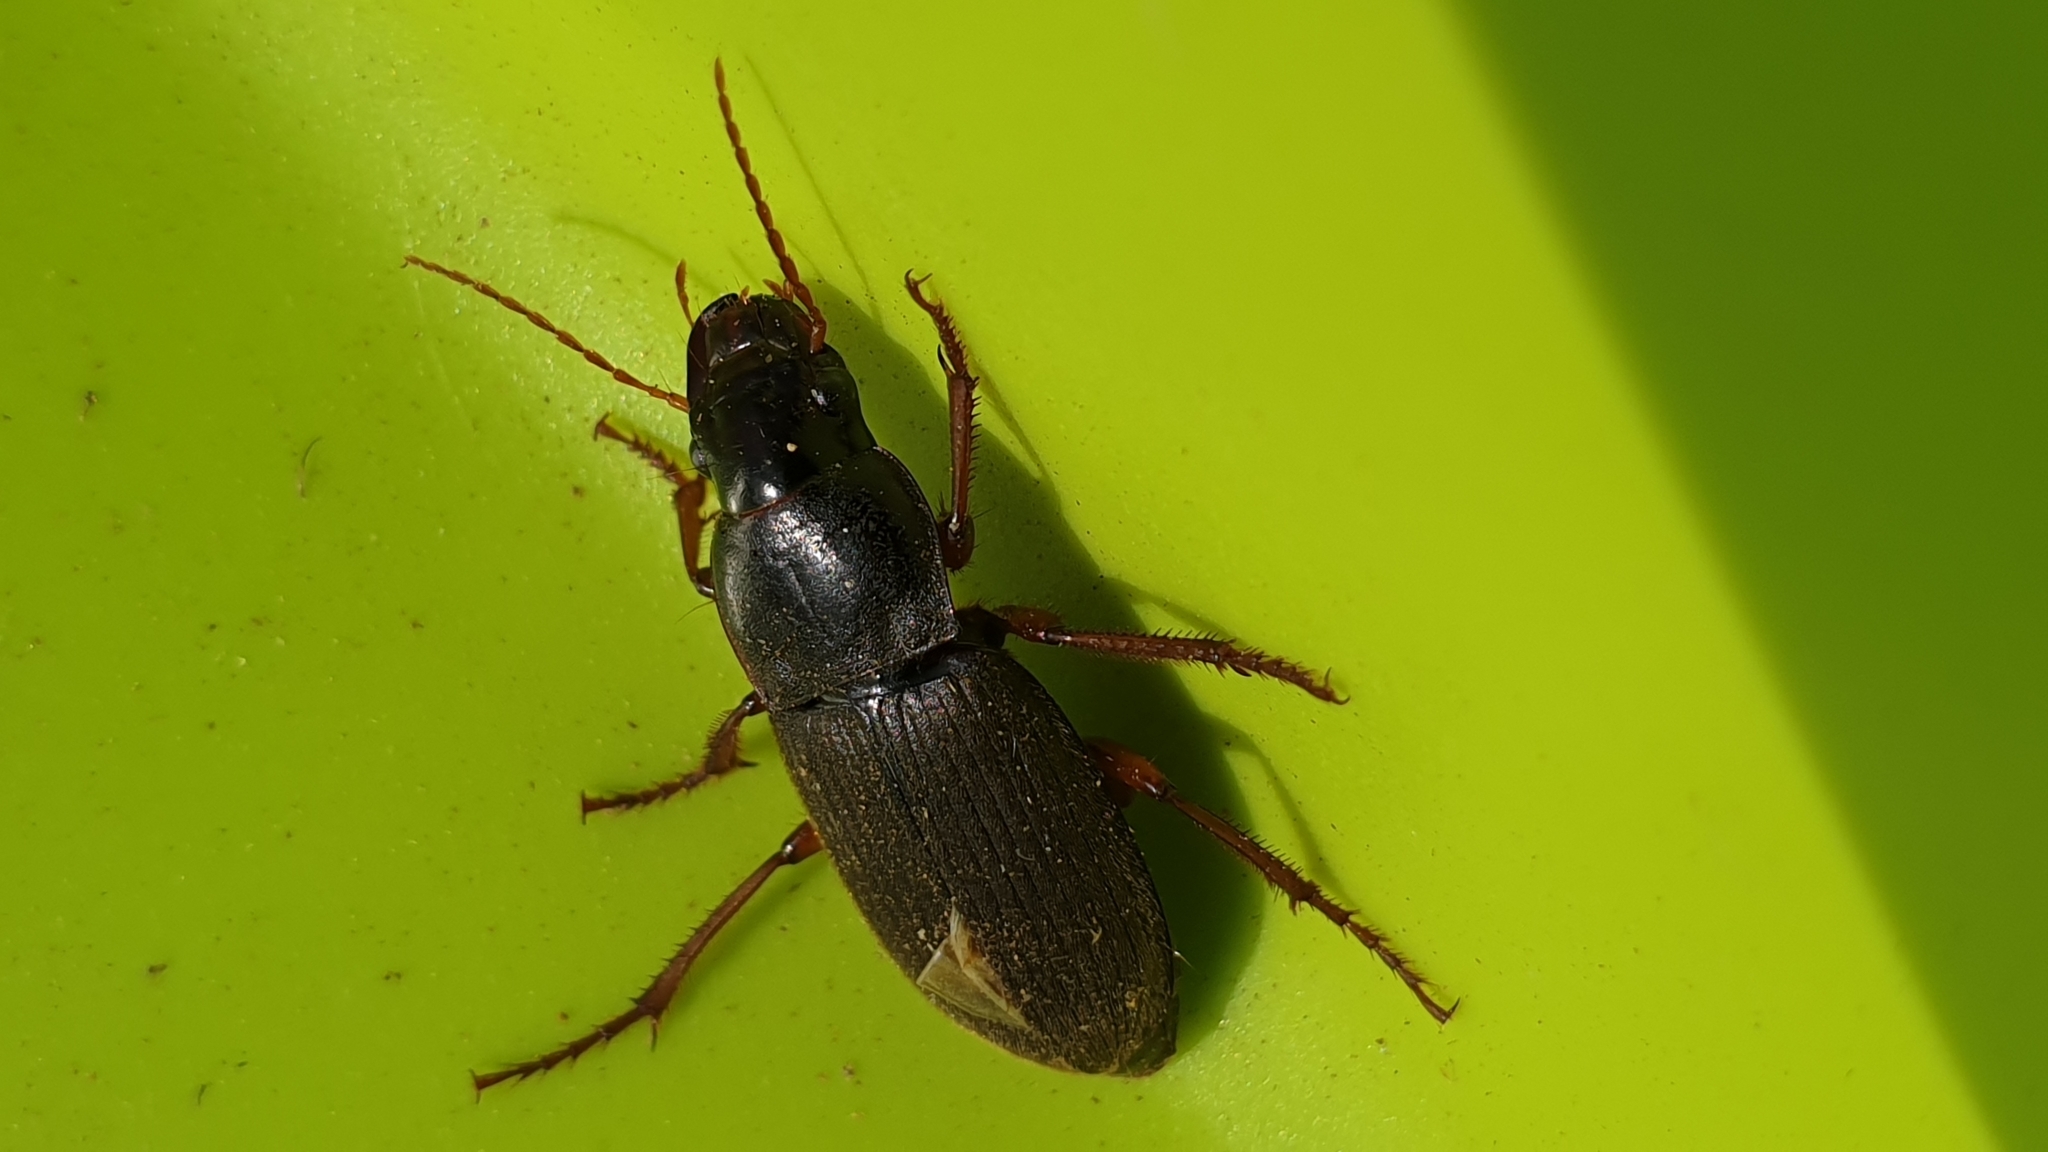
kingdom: Animalia
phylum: Arthropoda
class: Insecta
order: Coleoptera
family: Carabidae
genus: Harpalus
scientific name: Harpalus rufipes
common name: Strawberry harp ground beetle
